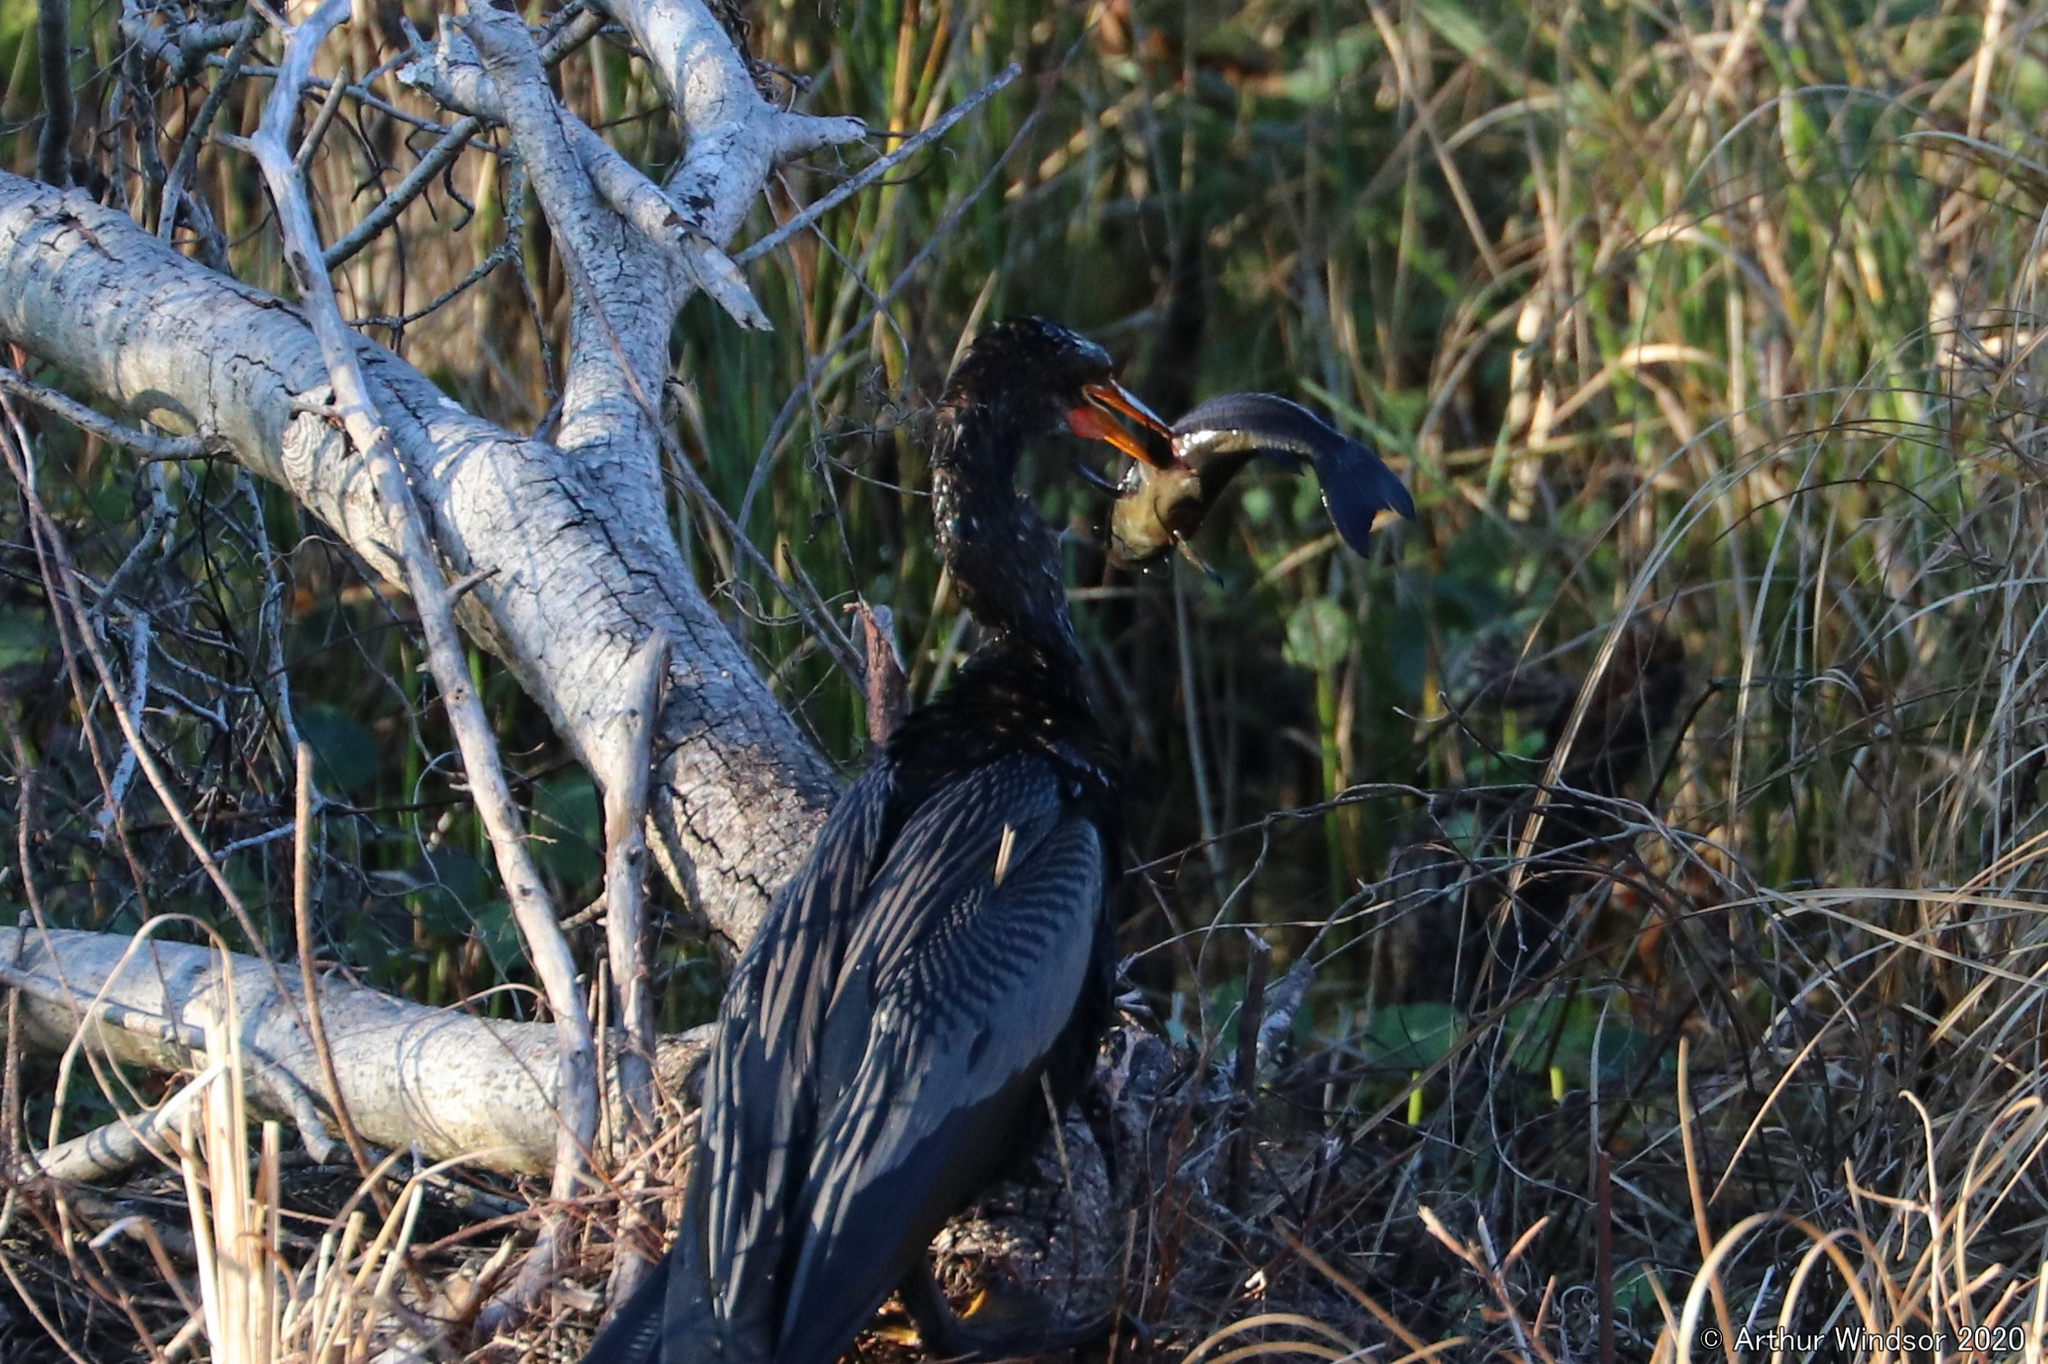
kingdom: Animalia
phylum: Chordata
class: Aves
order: Suliformes
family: Anhingidae
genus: Anhinga
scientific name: Anhinga anhinga
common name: Anhinga
